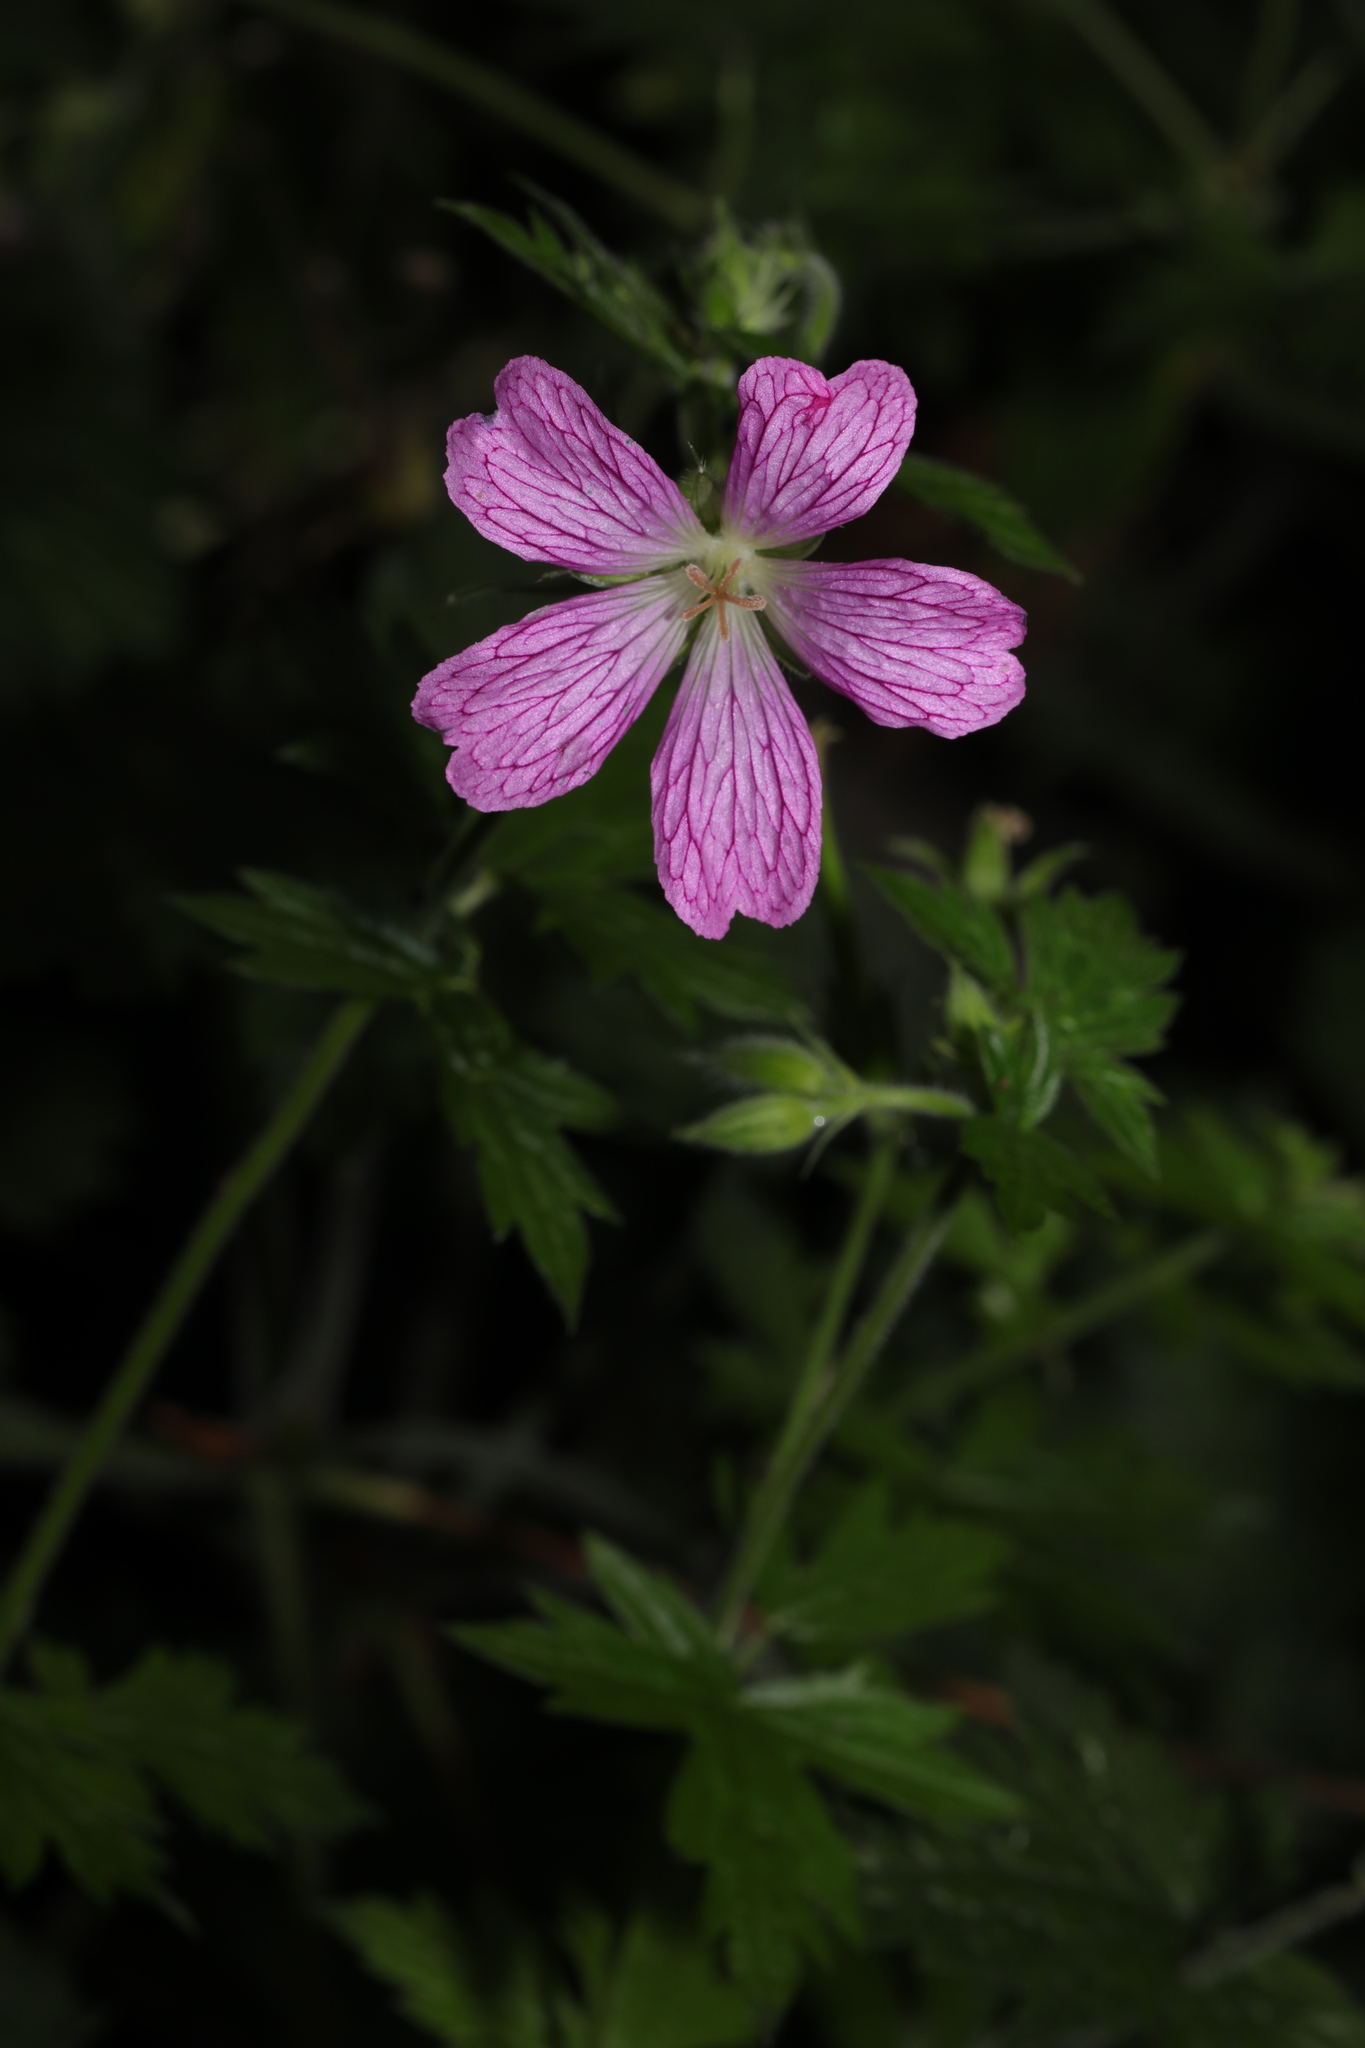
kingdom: Plantae
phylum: Tracheophyta
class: Magnoliopsida
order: Geraniales
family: Geraniaceae
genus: Geranium
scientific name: Geranium oxonianum
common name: Druce's crane's-bill
